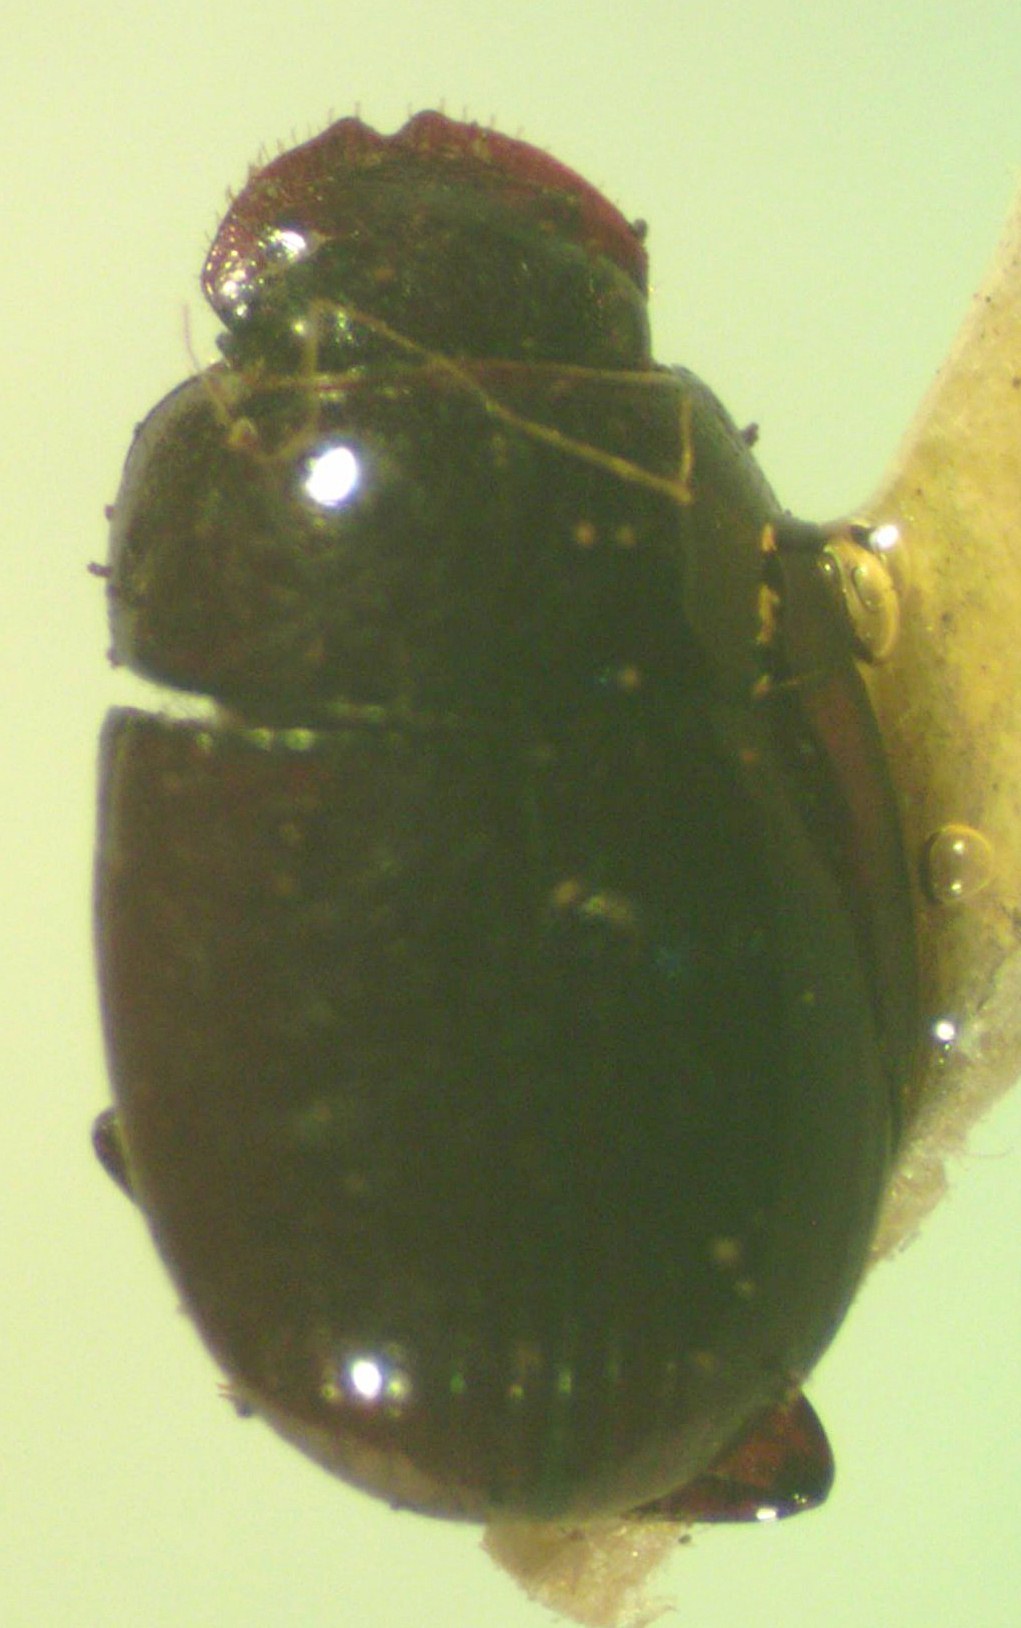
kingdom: Animalia
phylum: Arthropoda
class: Insecta
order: Coleoptera
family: Scarabaeidae
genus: Agamopus
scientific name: Agamopus lampros
